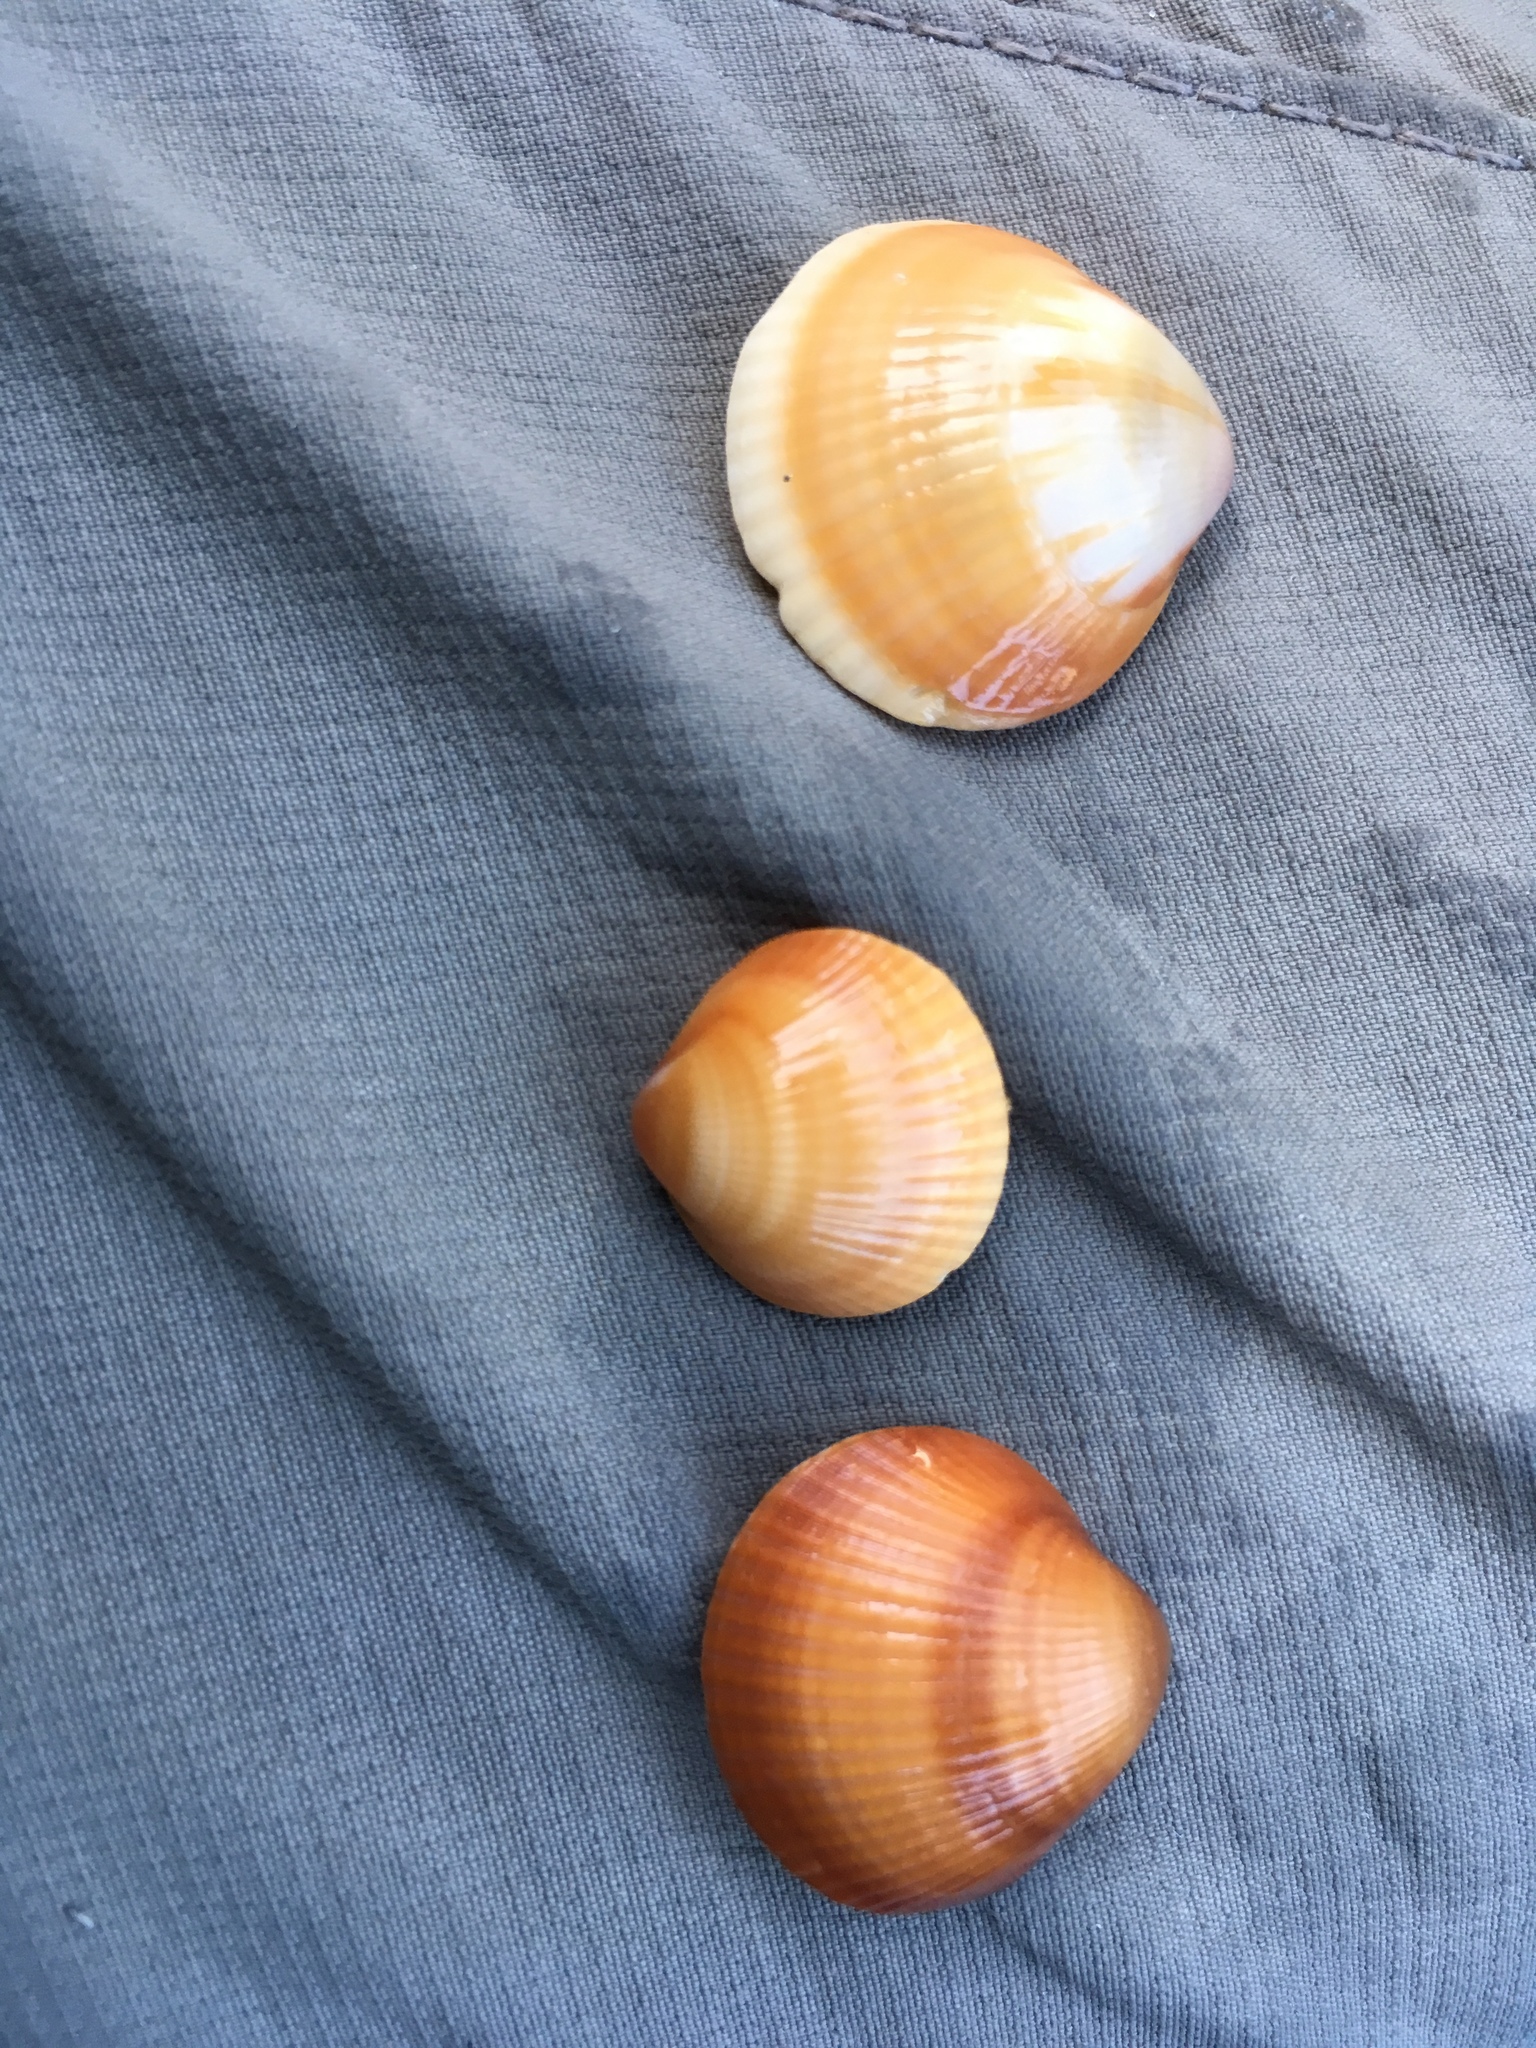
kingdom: Animalia
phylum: Mollusca
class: Bivalvia
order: Arcida
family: Glycymerididae
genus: Glycymeris
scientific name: Glycymeris spectralis
